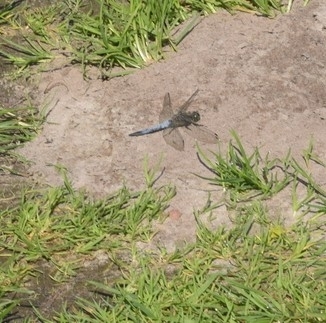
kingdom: Animalia
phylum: Arthropoda
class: Insecta
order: Odonata
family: Libellulidae
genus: Orthetrum
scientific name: Orthetrum cancellatum
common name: Black-tailed skimmer
